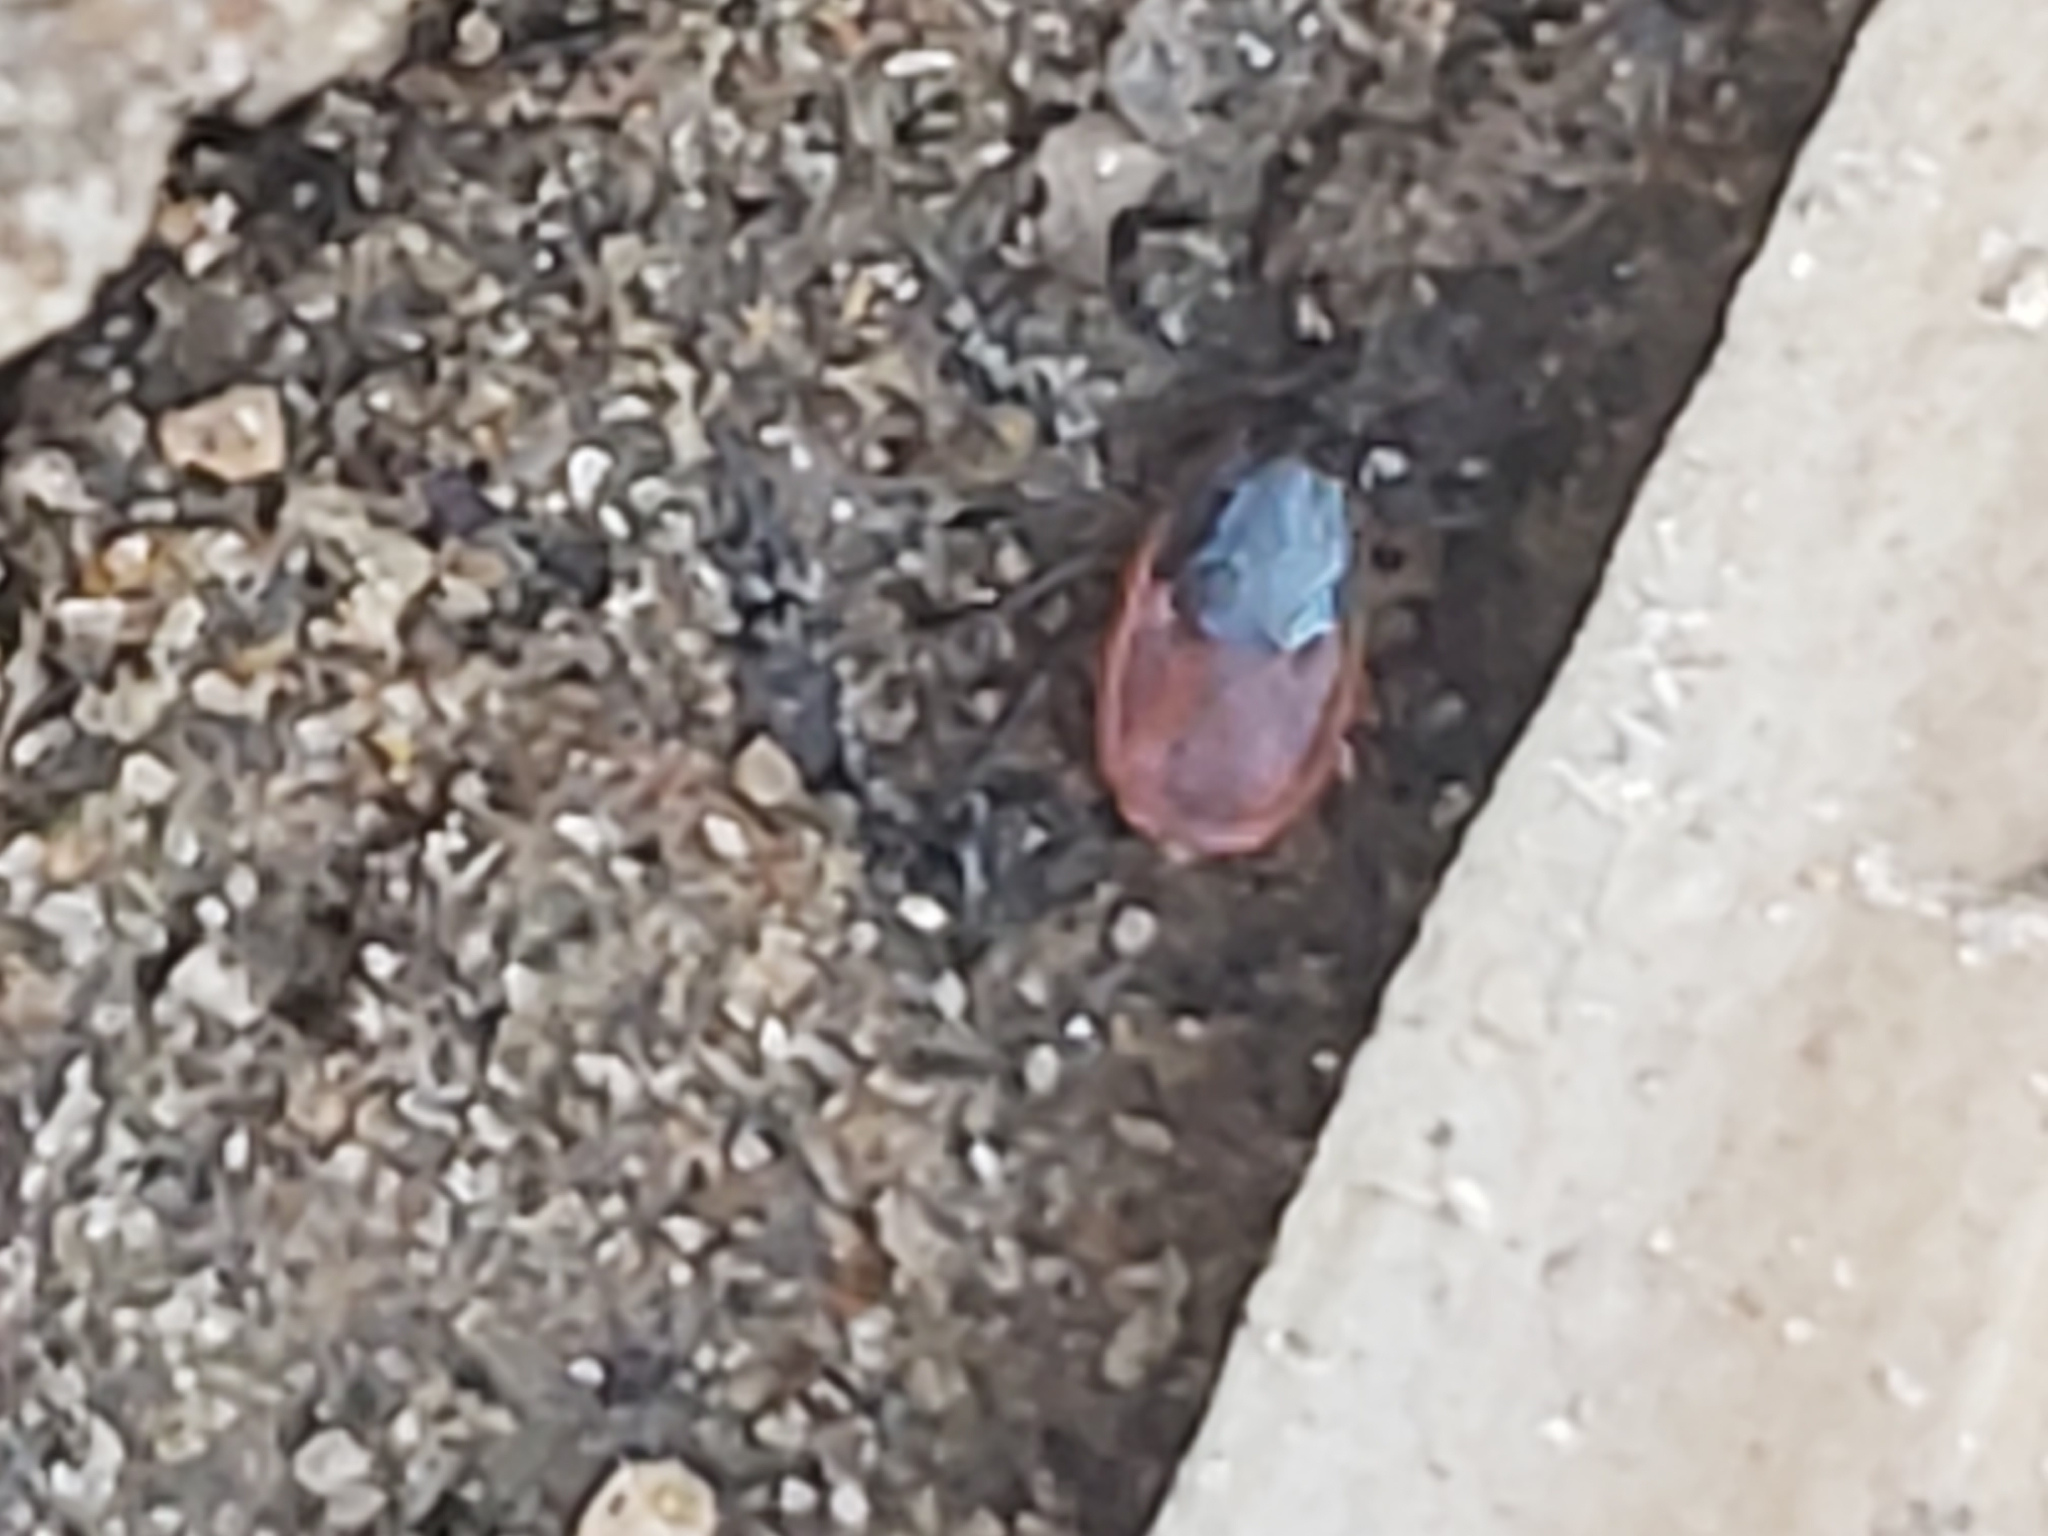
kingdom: Animalia
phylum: Arthropoda
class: Arachnida
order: Ixodida
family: Ixodidae
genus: Ixodes
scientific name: Ixodes scapularis
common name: Black legged tick
